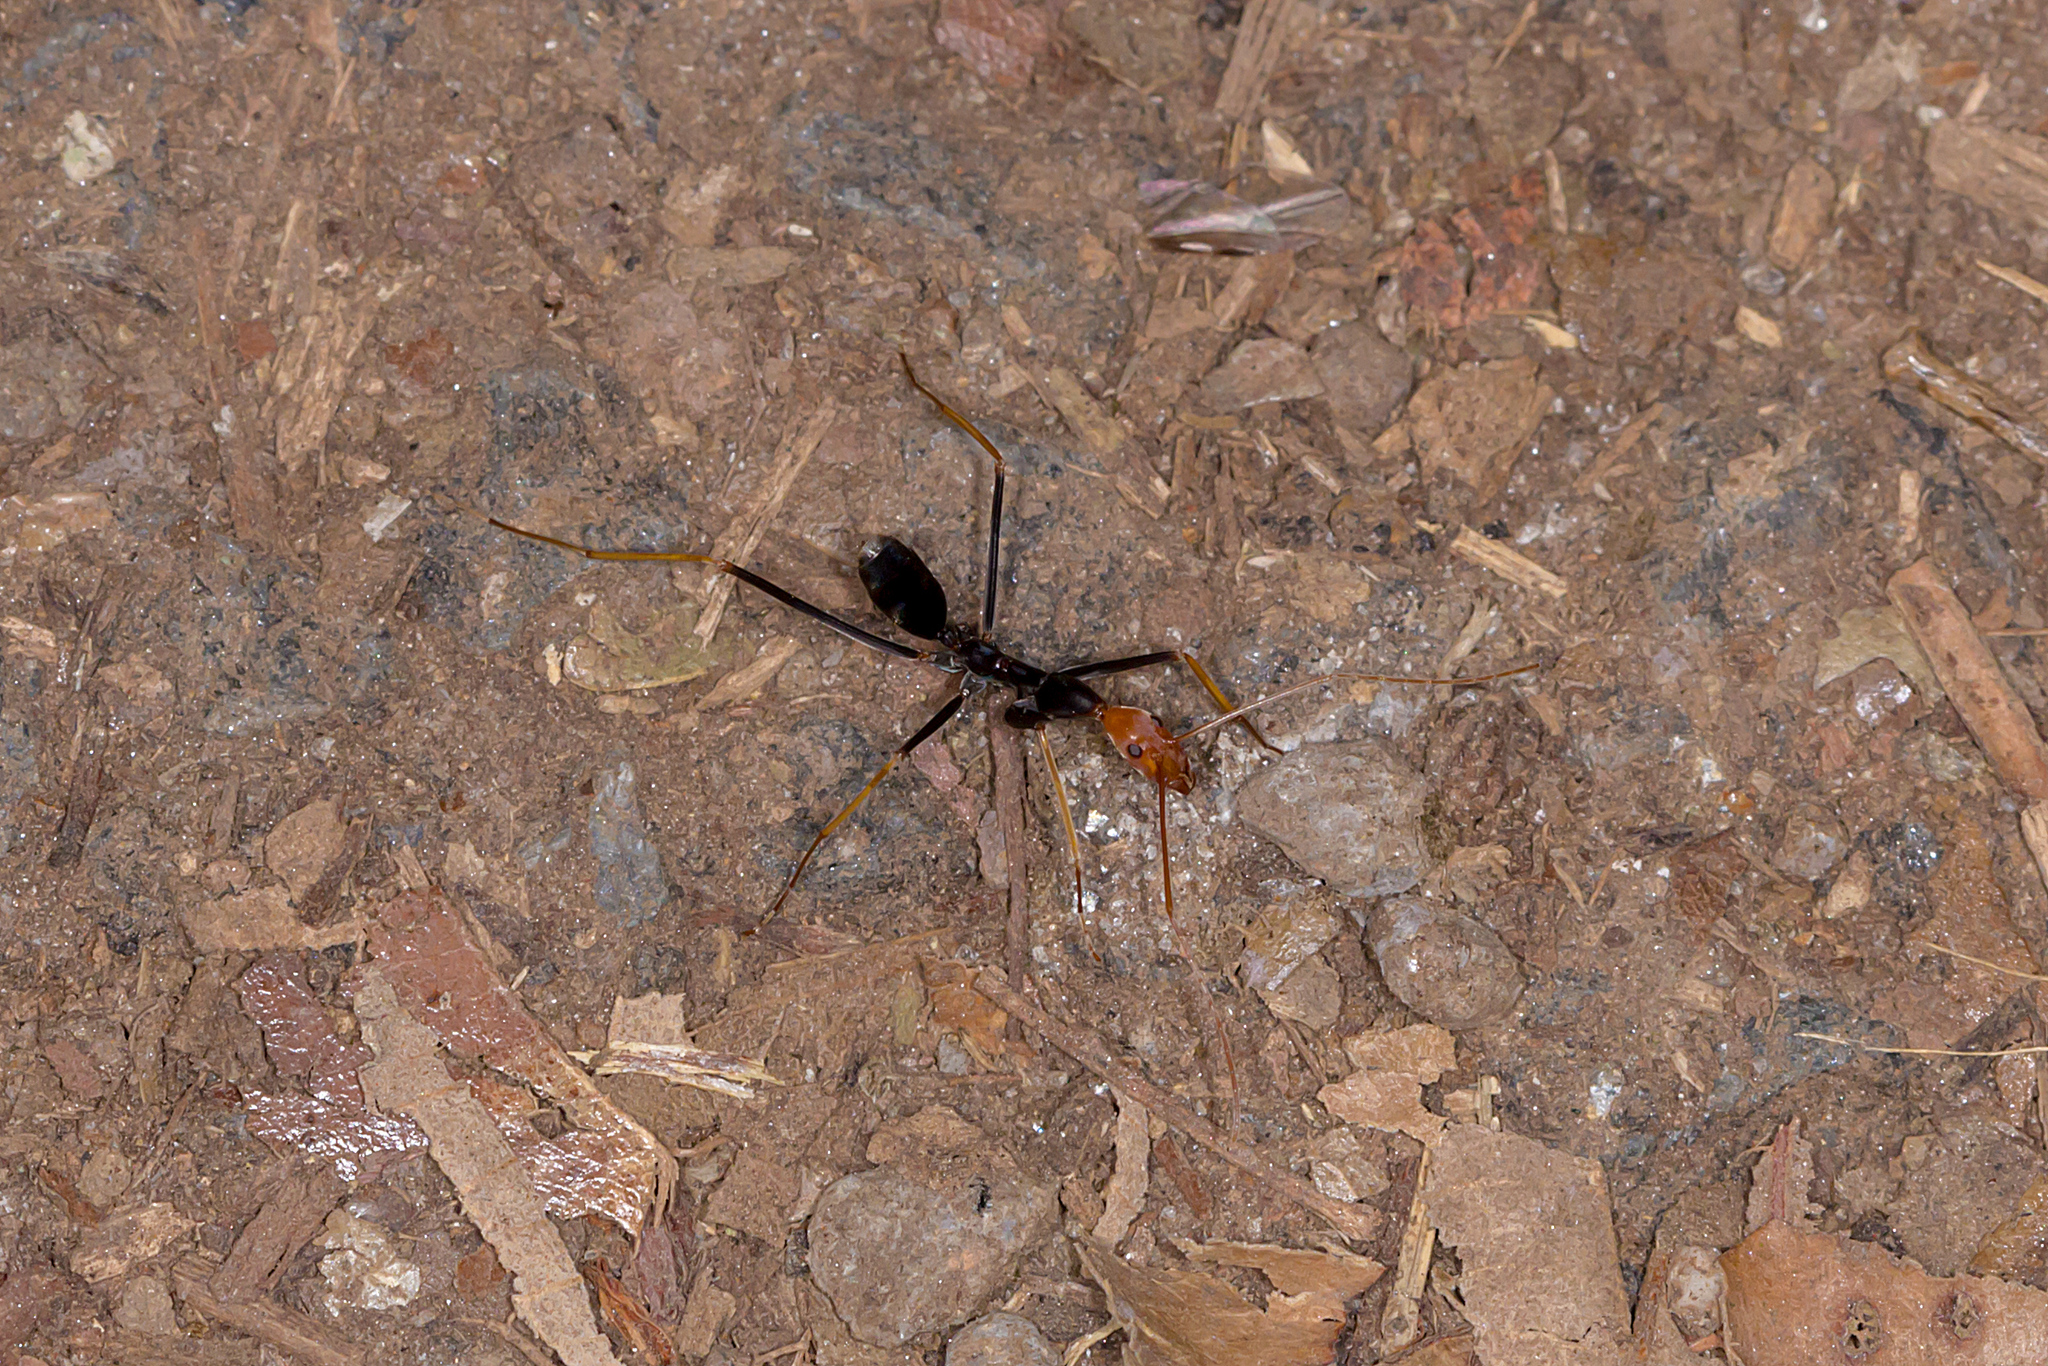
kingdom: Animalia
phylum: Arthropoda
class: Insecta
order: Hymenoptera
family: Formicidae
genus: Leptomyrmex
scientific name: Leptomyrmex ruficeps
